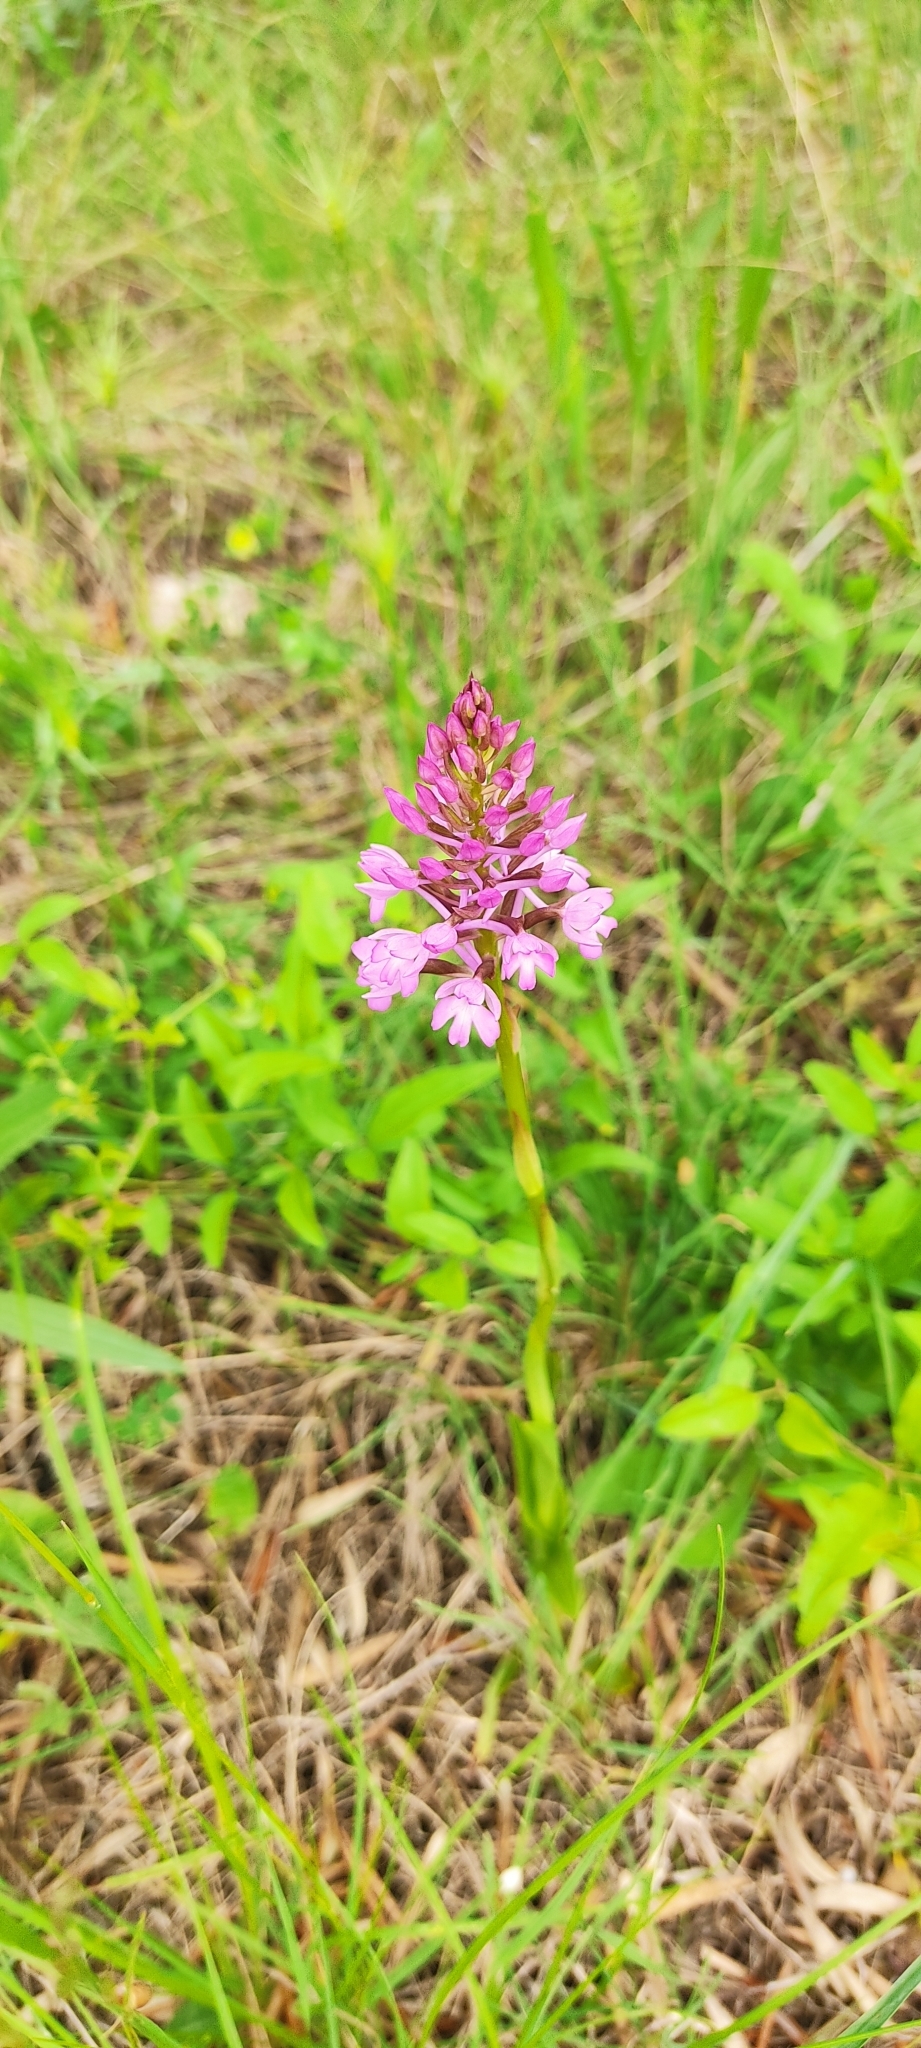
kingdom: Plantae
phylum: Tracheophyta
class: Liliopsida
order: Asparagales
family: Orchidaceae
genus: Anacamptis
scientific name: Anacamptis pyramidalis
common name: Pyramidal orchid
